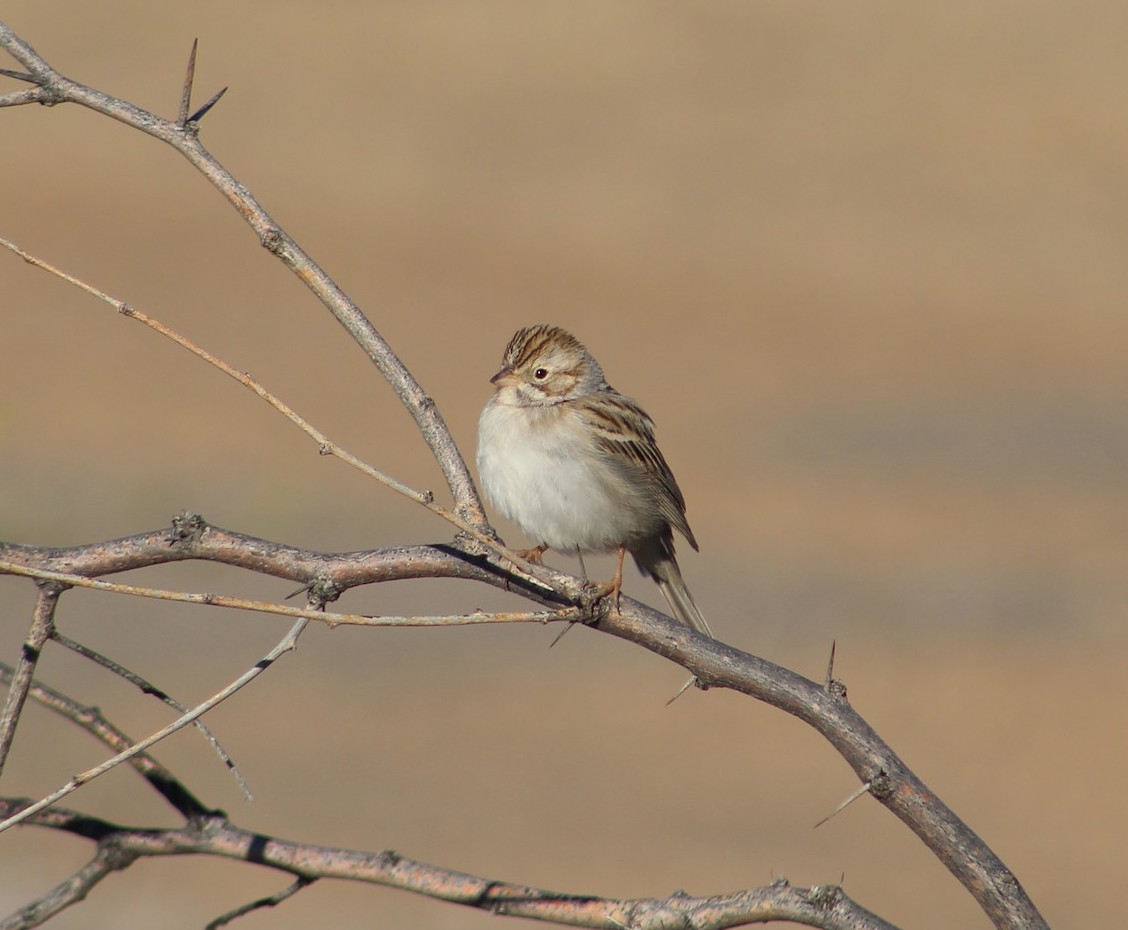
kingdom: Animalia
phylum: Chordata
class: Aves
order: Passeriformes
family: Passerellidae
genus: Spizella
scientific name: Spizella breweri
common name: Brewer's sparrow
